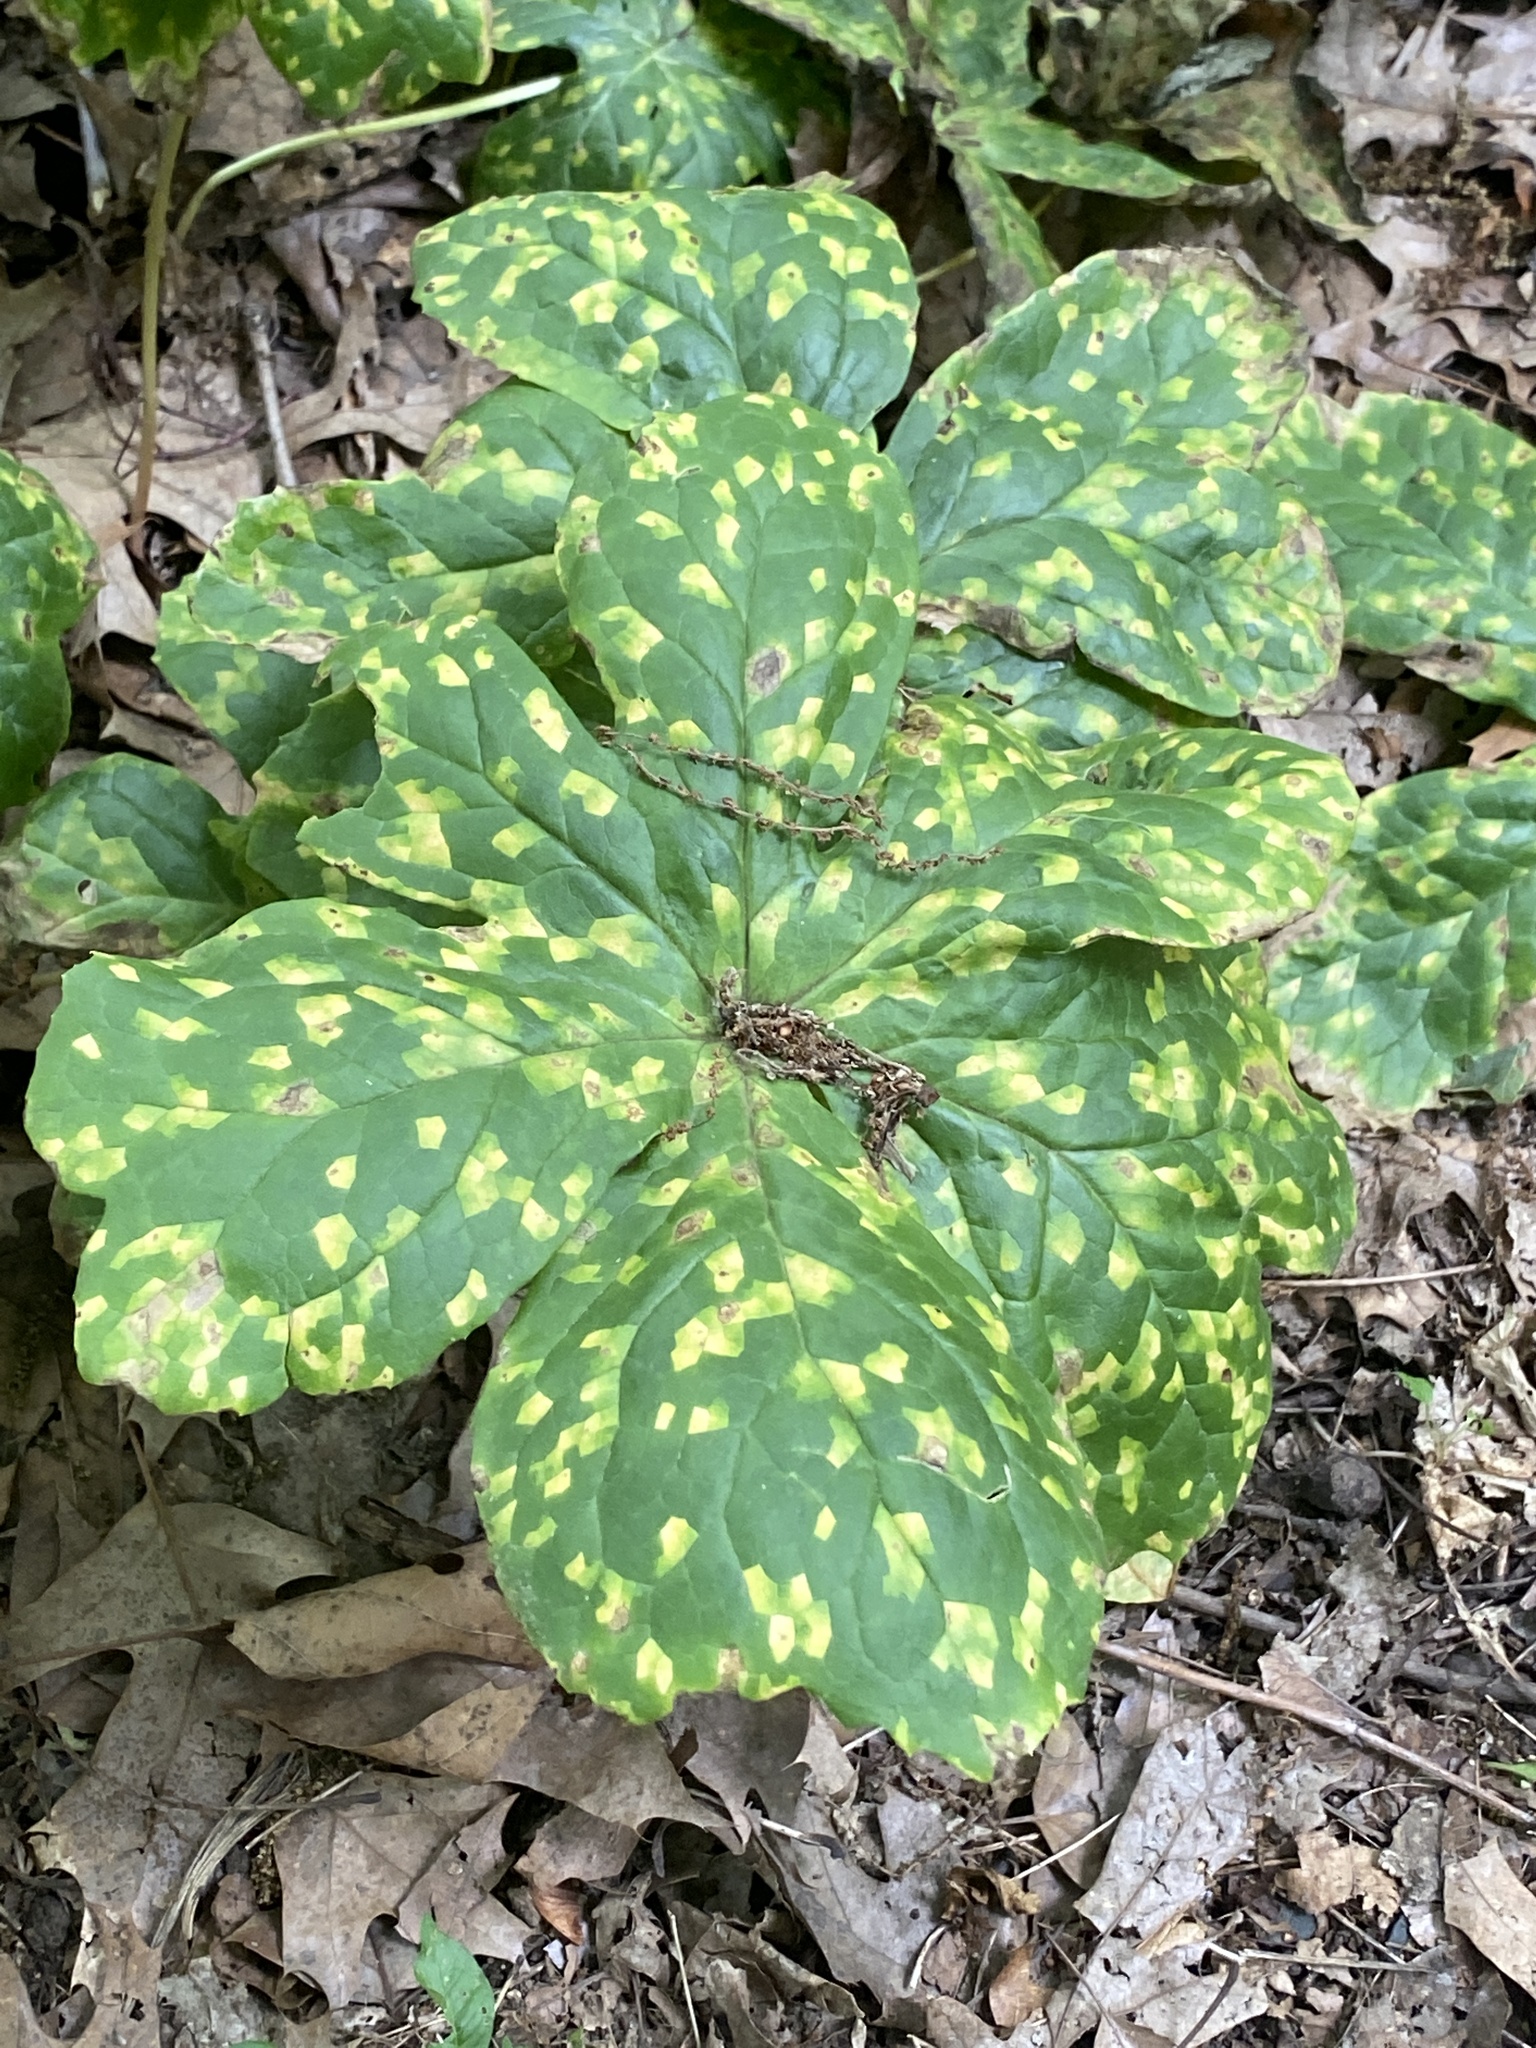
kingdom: Fungi
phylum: Basidiomycota
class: Pucciniomycetes
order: Pucciniales
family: Pucciniaceae
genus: Puccinia
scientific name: Puccinia podophylli
